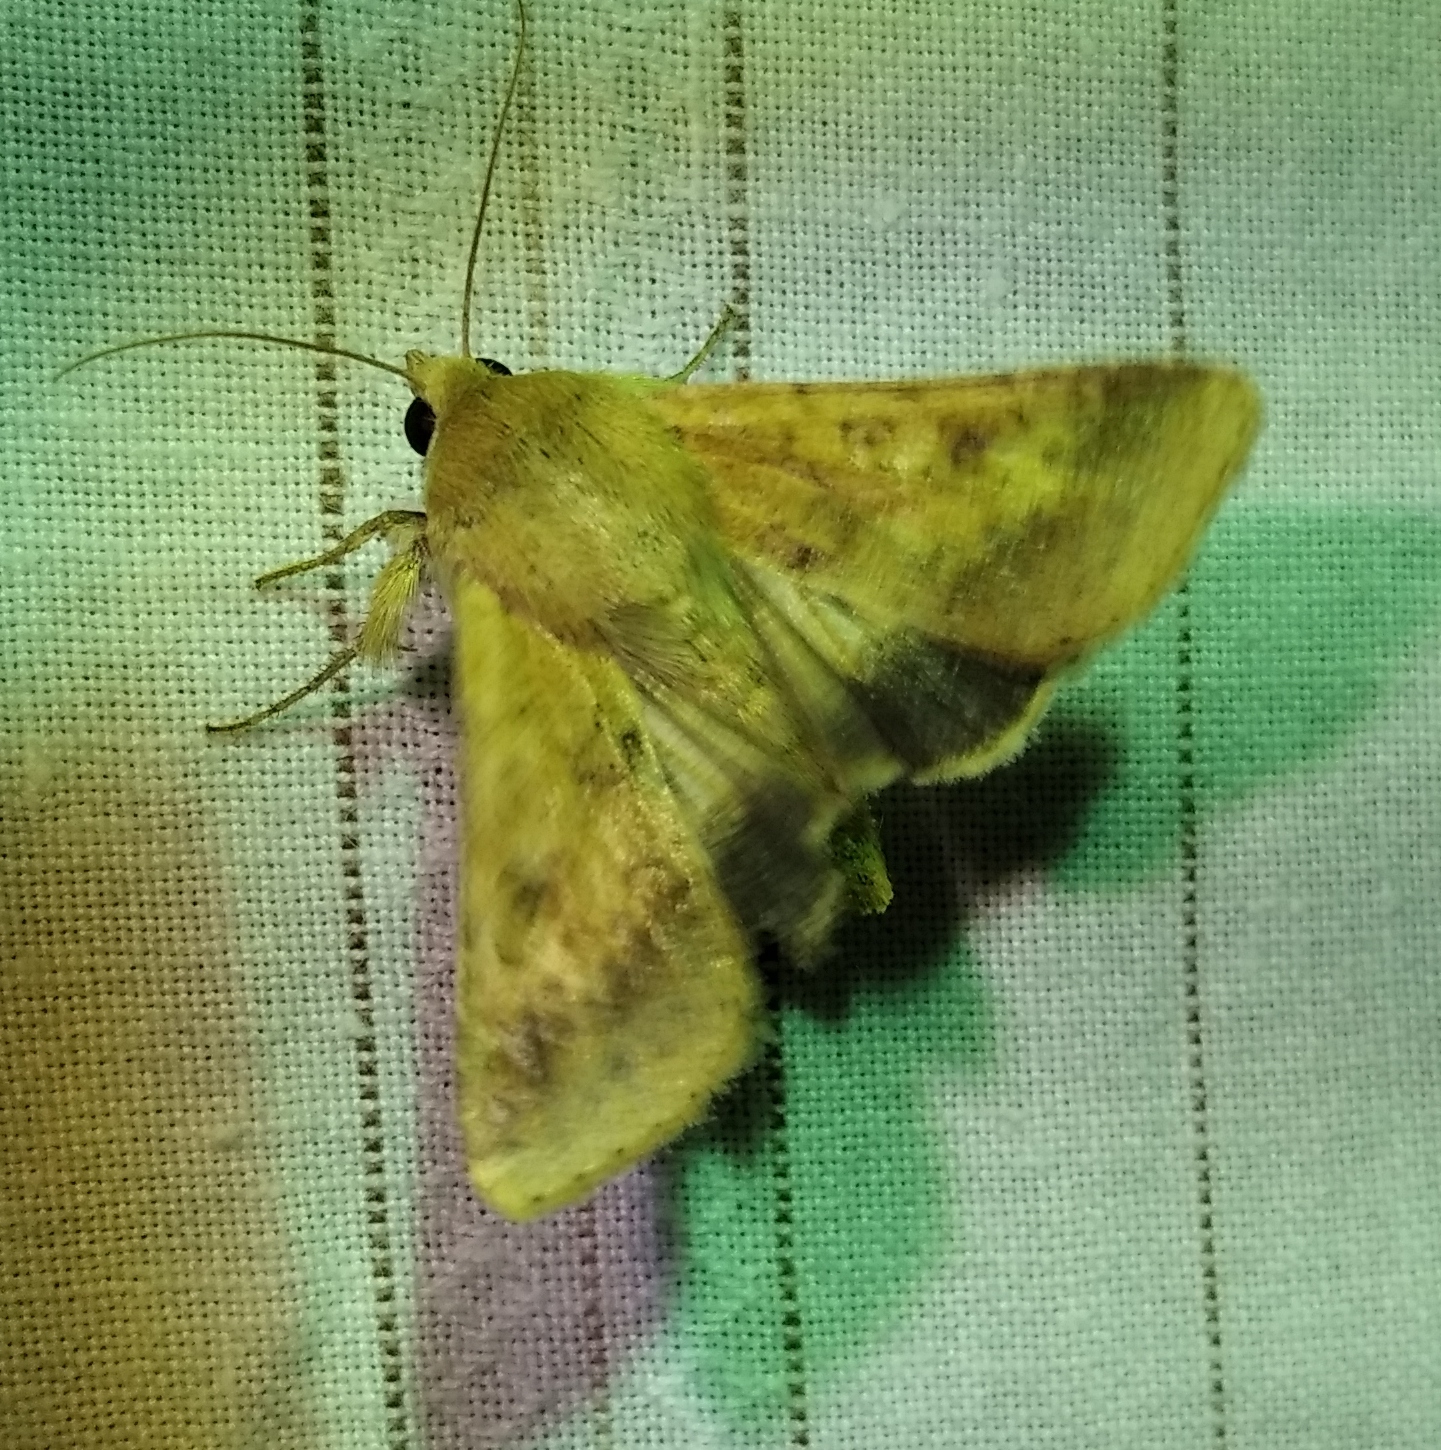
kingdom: Animalia
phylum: Arthropoda
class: Insecta
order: Lepidoptera
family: Noctuidae
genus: Helicoverpa
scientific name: Helicoverpa armigera
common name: Cotton bollworm
